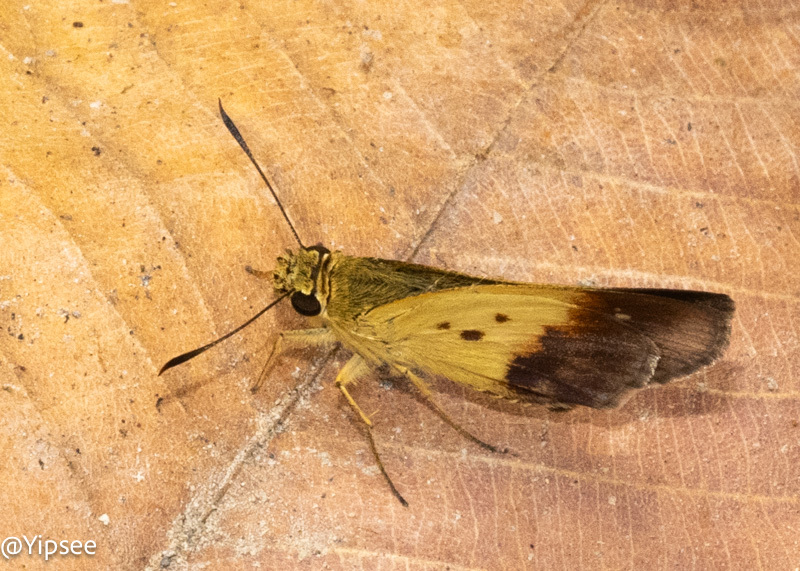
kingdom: Animalia
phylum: Arthropoda
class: Insecta
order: Lepidoptera
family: Hesperiidae
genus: Zographetus
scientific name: Zographetus satwa
